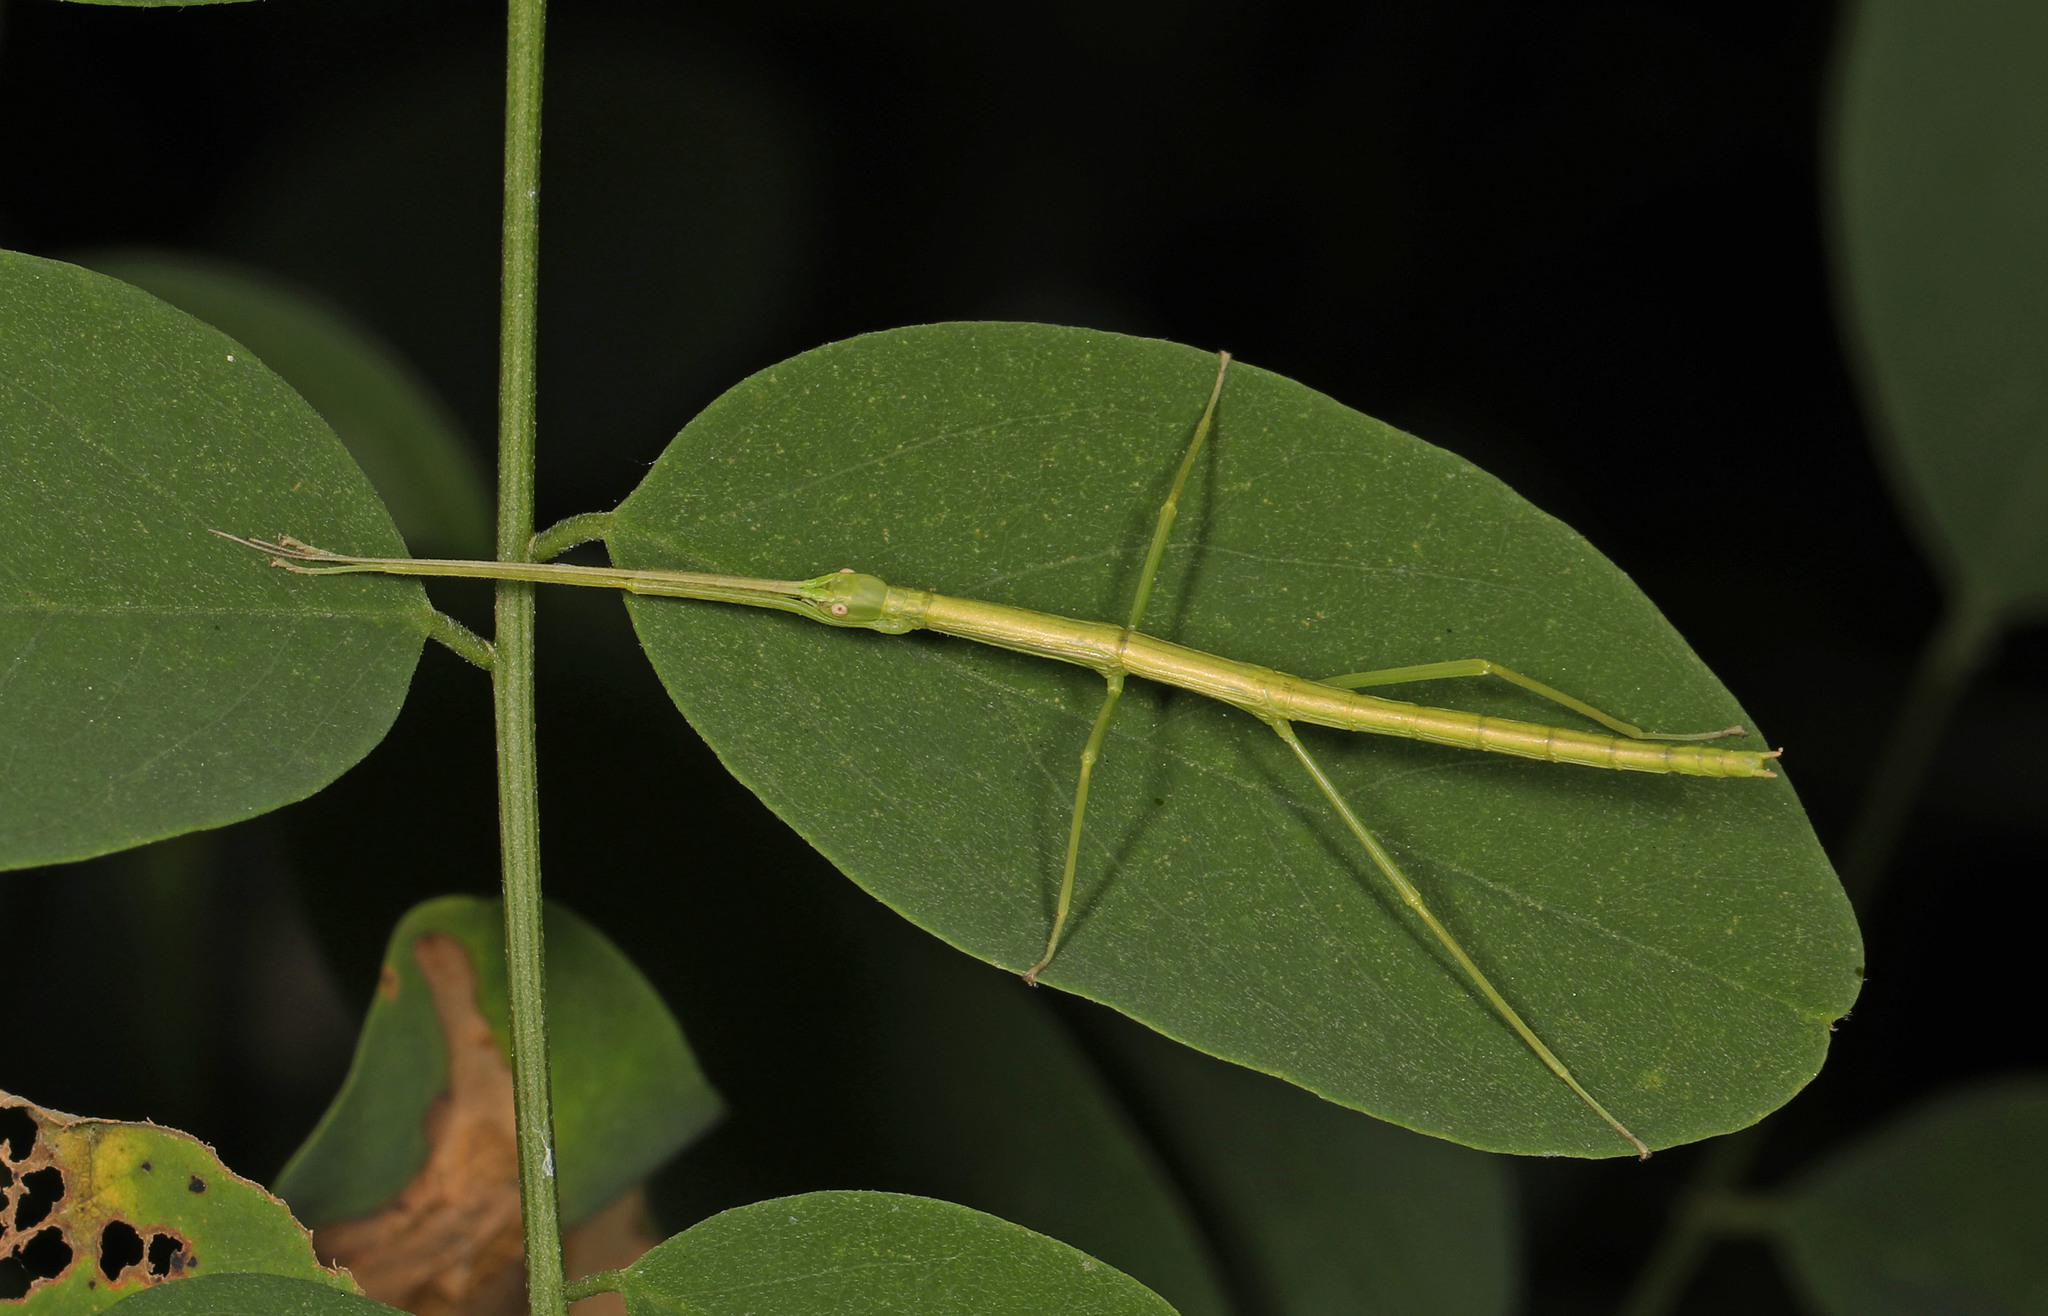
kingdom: Animalia
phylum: Arthropoda
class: Insecta
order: Phasmida
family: Diapheromeridae
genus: Diapheromera
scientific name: Diapheromera femorata
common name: Common american walkingstick
